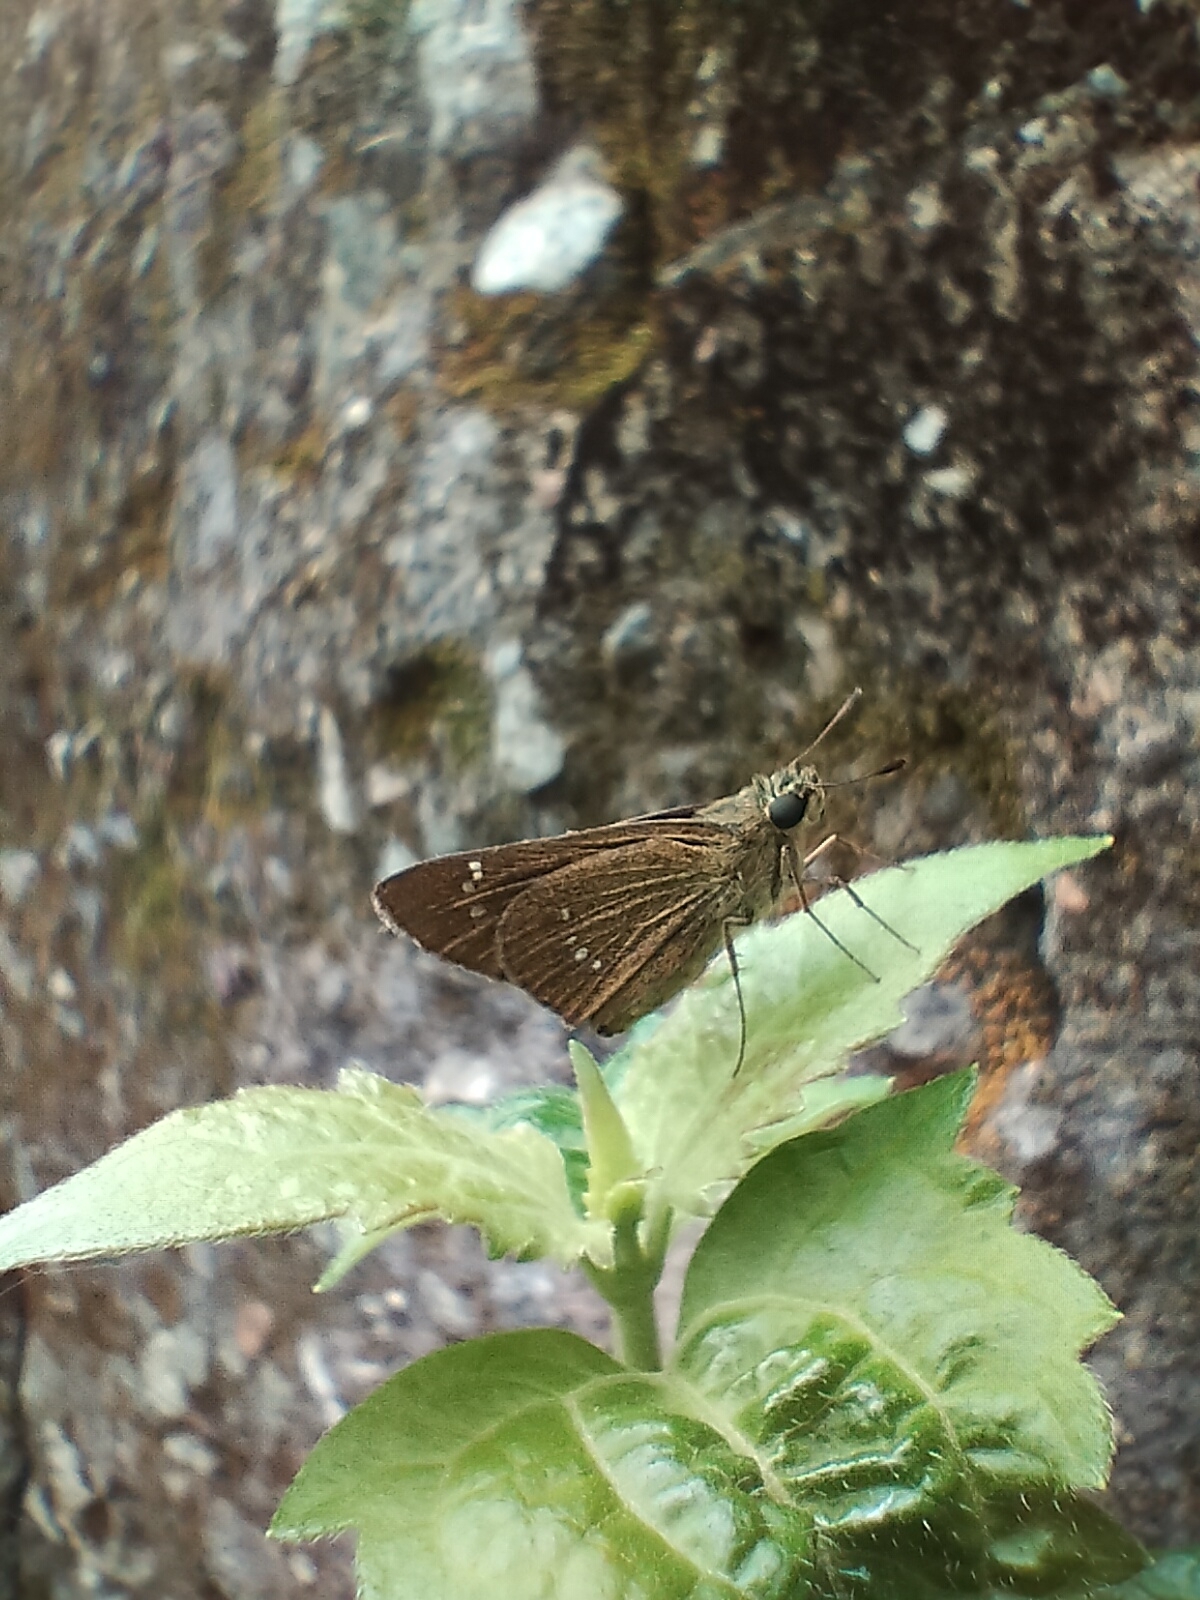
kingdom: Animalia
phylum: Arthropoda
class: Insecta
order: Lepidoptera
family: Hesperiidae
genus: Borbo
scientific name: Borbo cinnara
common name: Formosan swift
